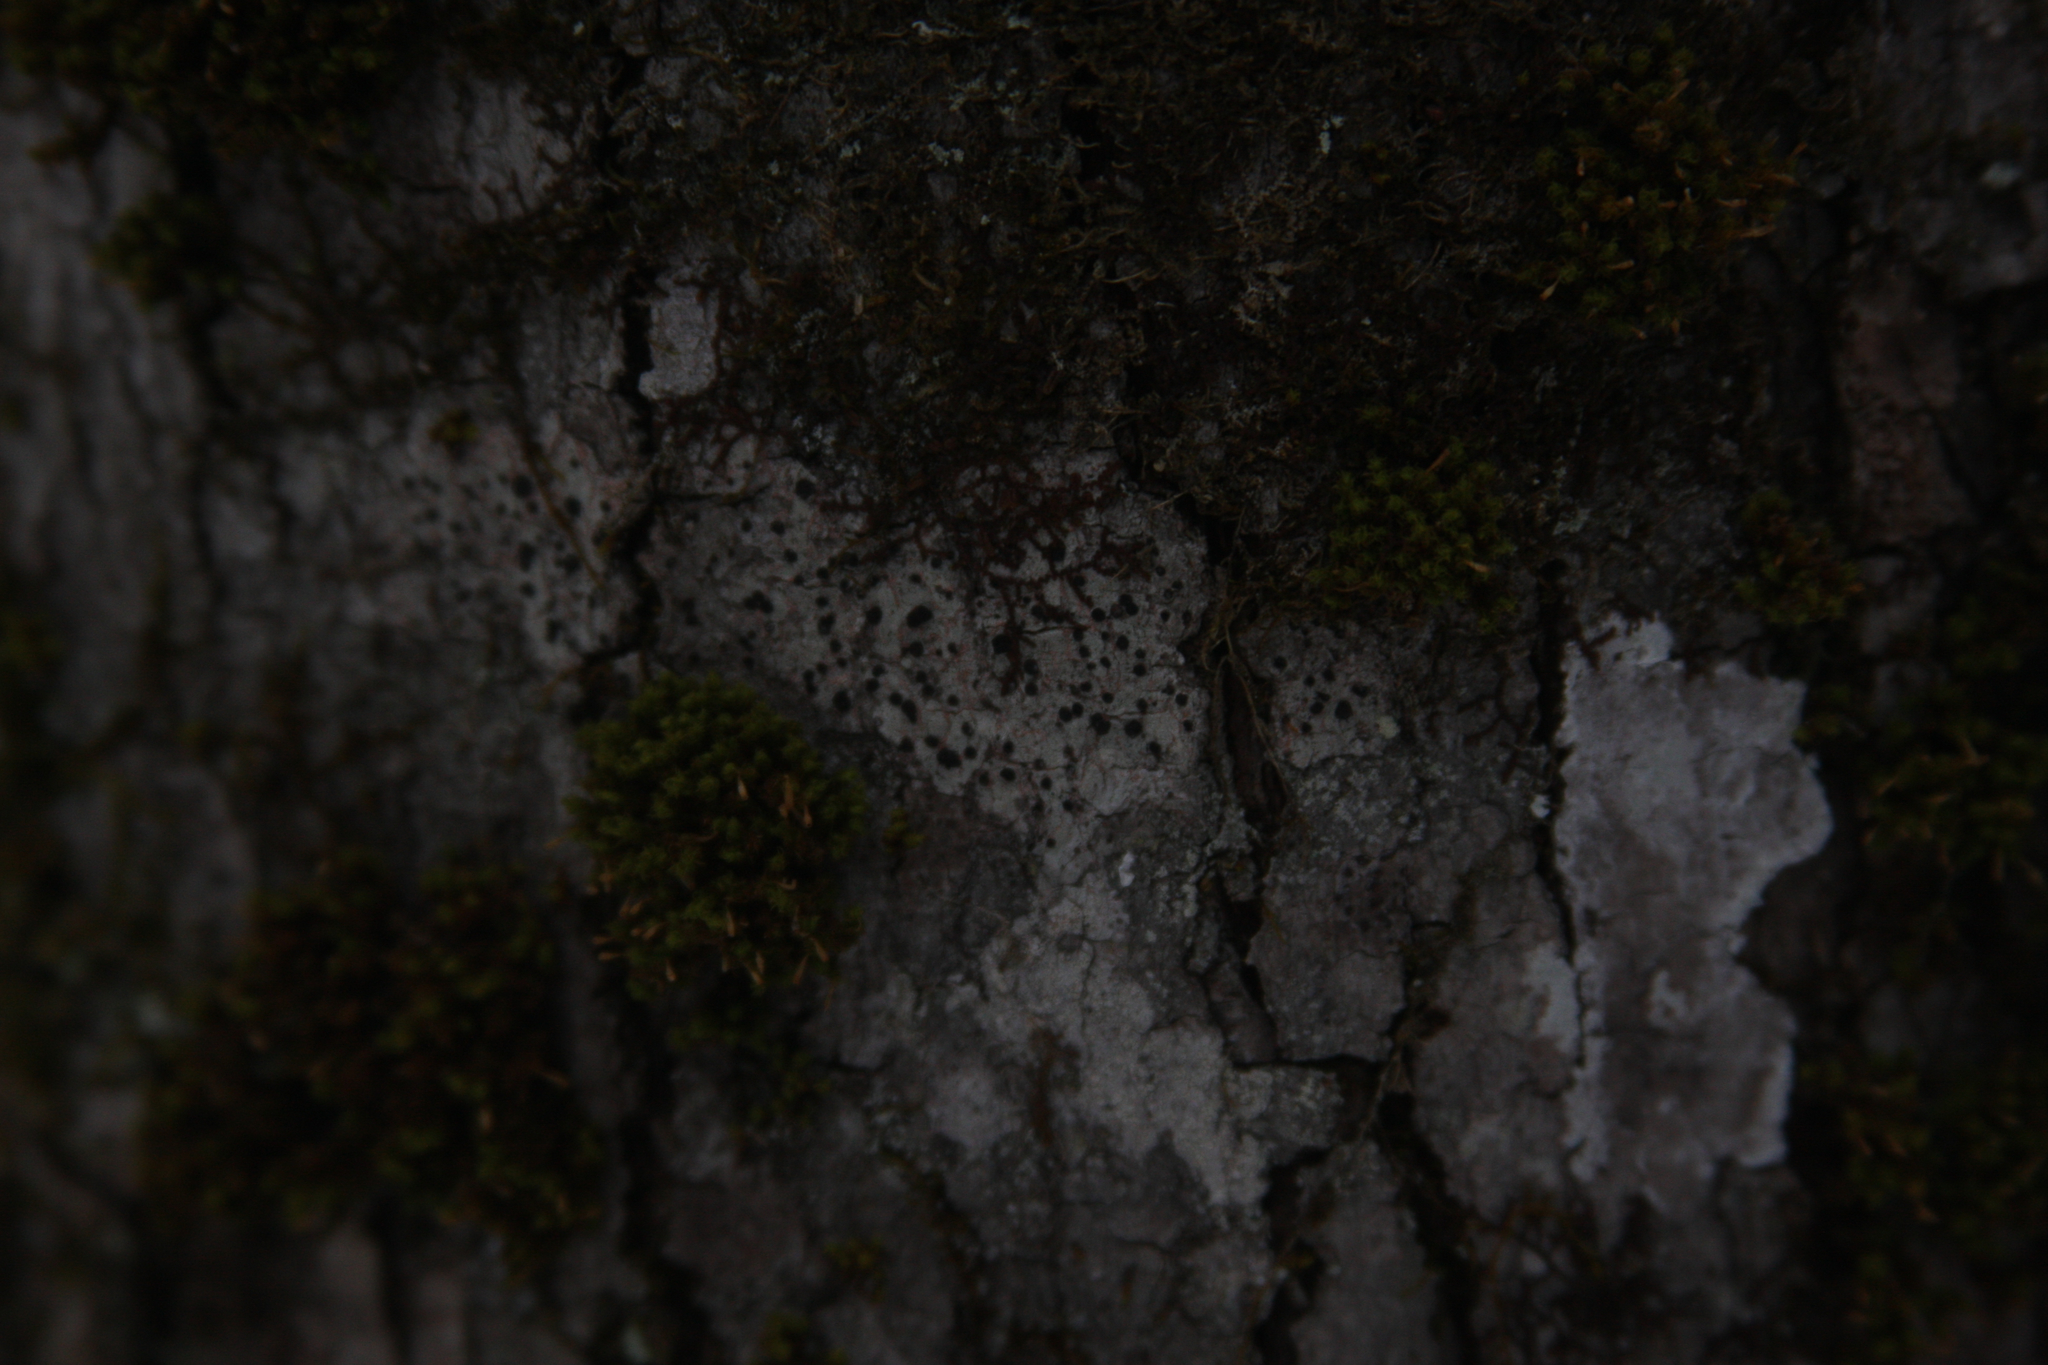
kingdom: Plantae
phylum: Bryophyta
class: Bryopsida
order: Orthotrichales
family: Orthotrichaceae
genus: Ulota
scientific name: Ulota crispa
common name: Crisped pincushion moss
